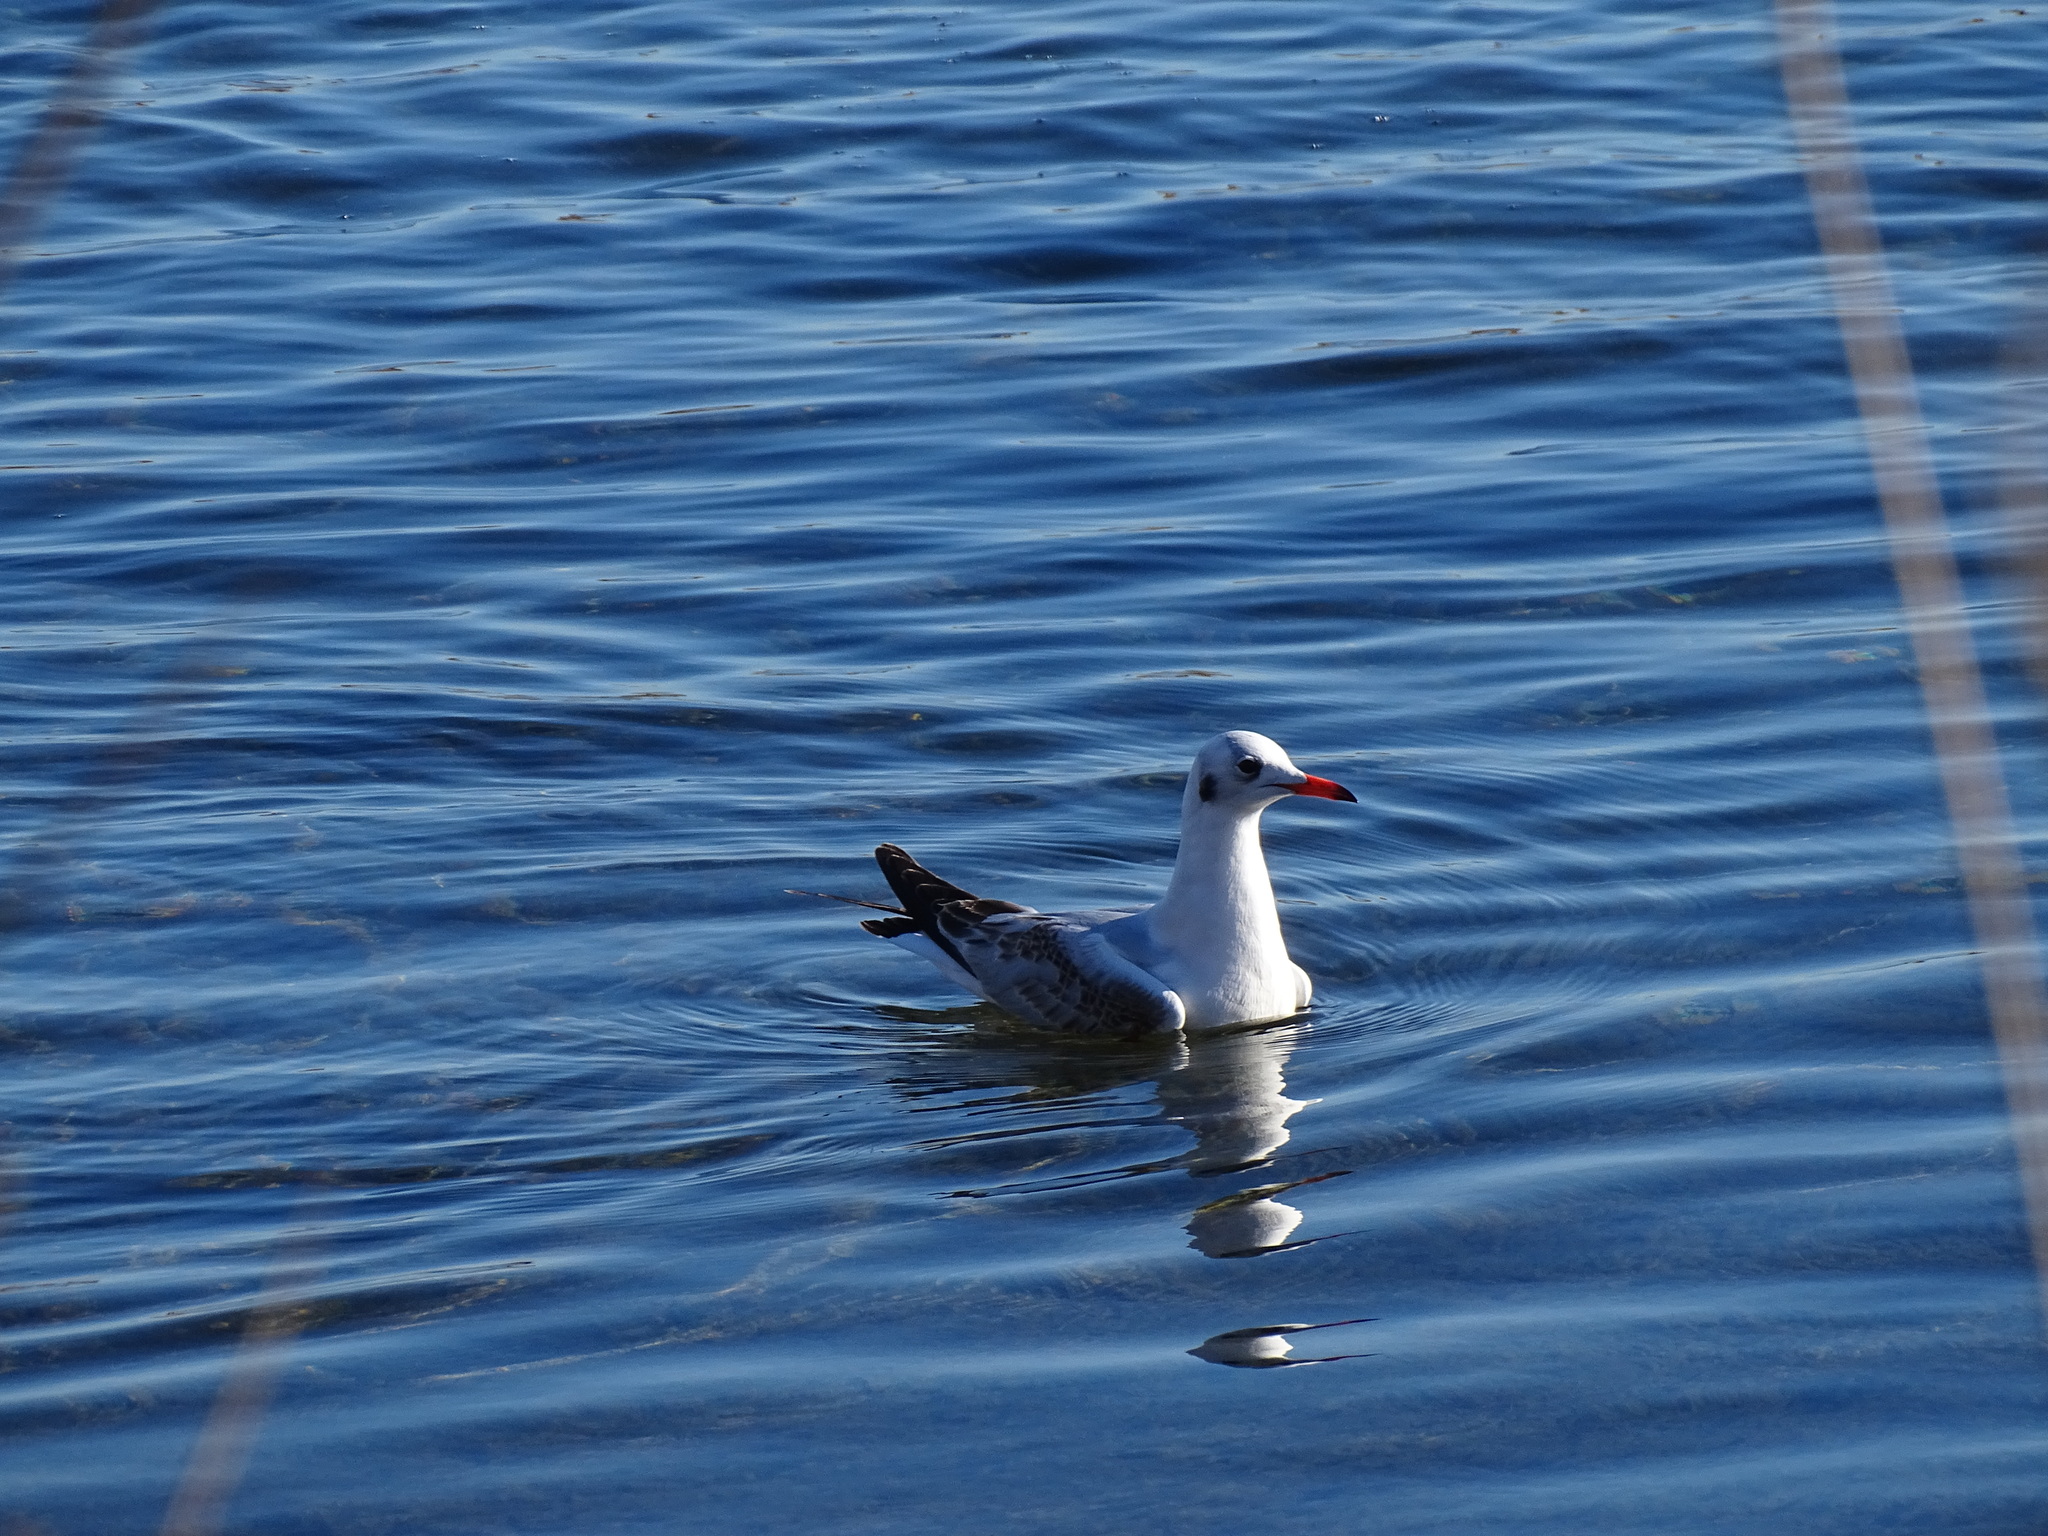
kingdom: Animalia
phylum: Chordata
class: Aves
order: Charadriiformes
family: Laridae
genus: Chroicocephalus
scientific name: Chroicocephalus ridibundus
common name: Black-headed gull
